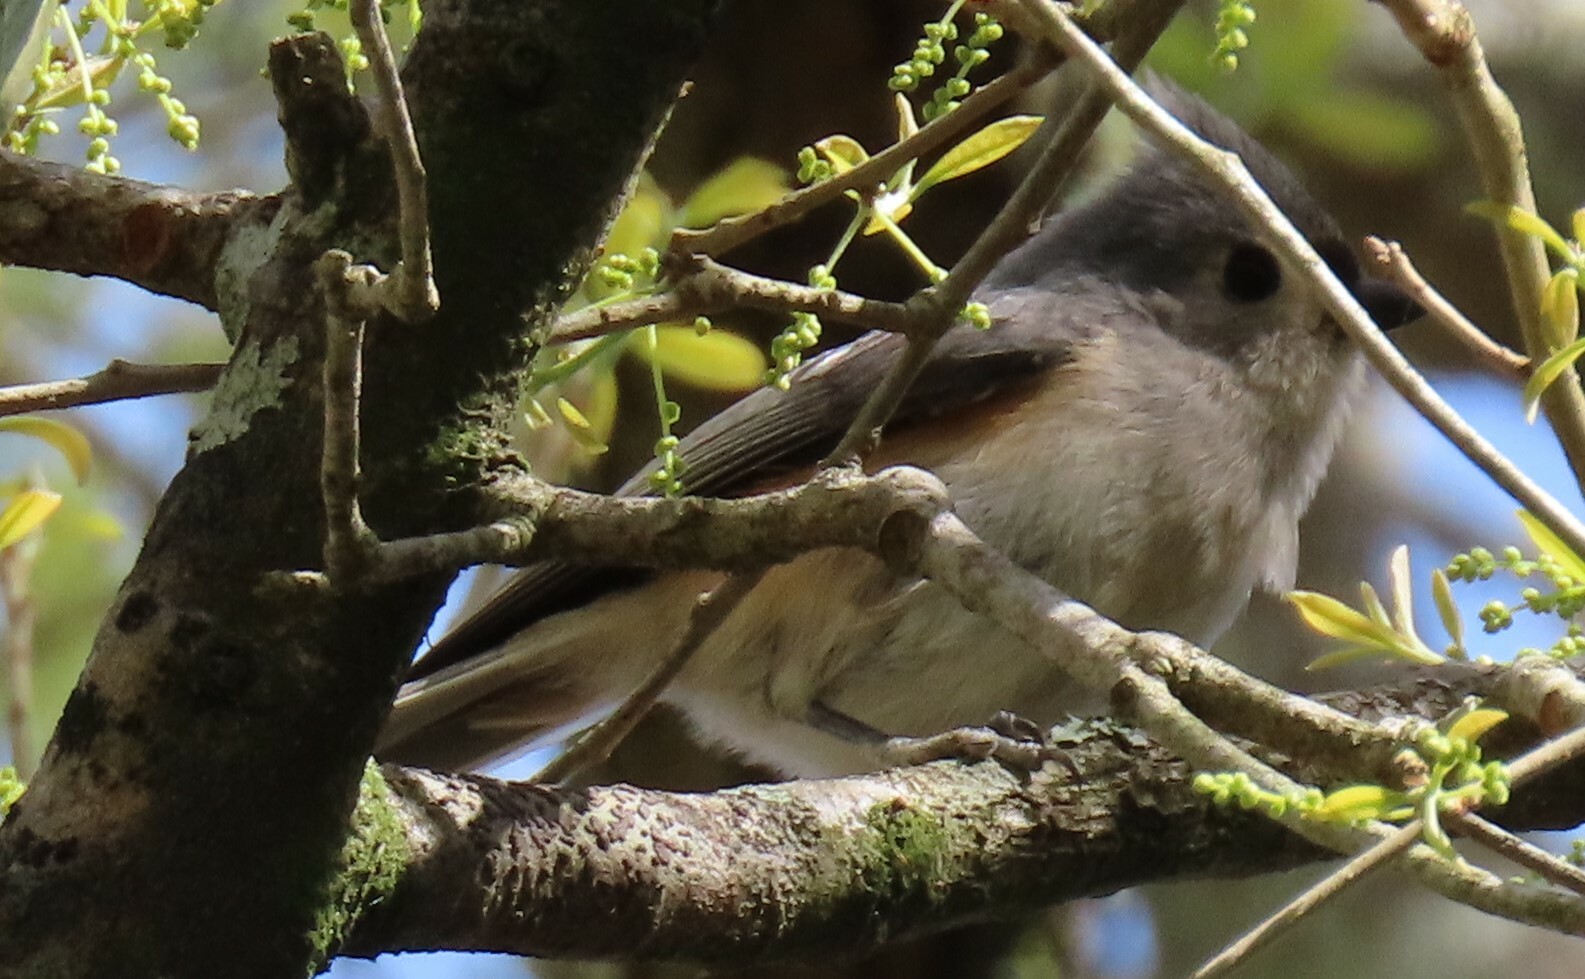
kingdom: Animalia
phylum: Chordata
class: Aves
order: Passeriformes
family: Paridae
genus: Baeolophus
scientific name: Baeolophus bicolor
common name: Tufted titmouse
